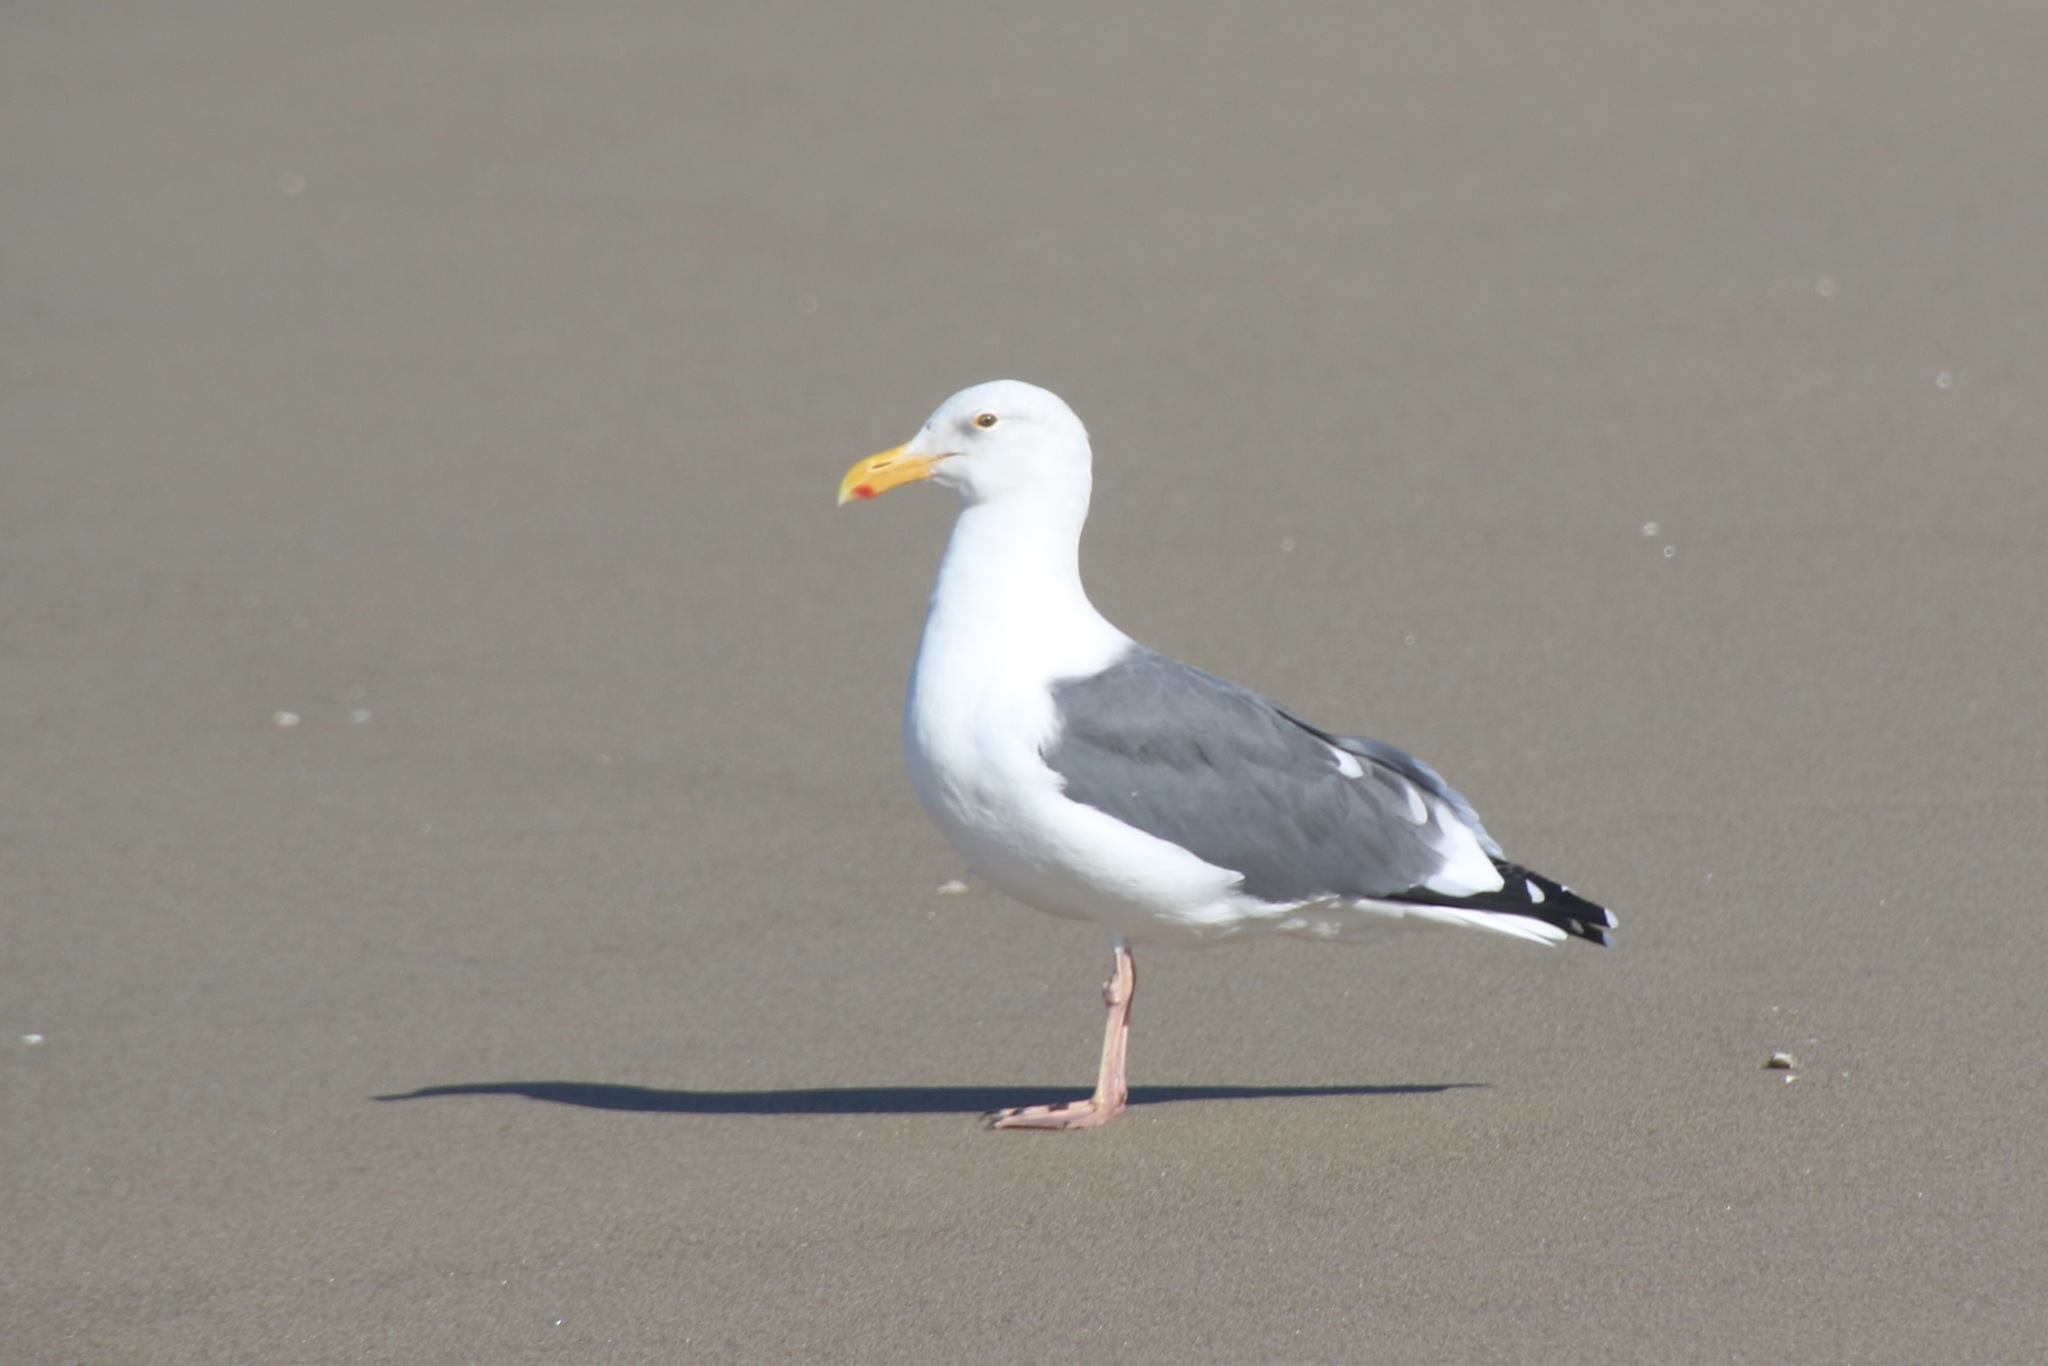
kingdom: Animalia
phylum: Chordata
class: Aves
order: Charadriiformes
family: Laridae
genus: Larus
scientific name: Larus occidentalis
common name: Western gull
